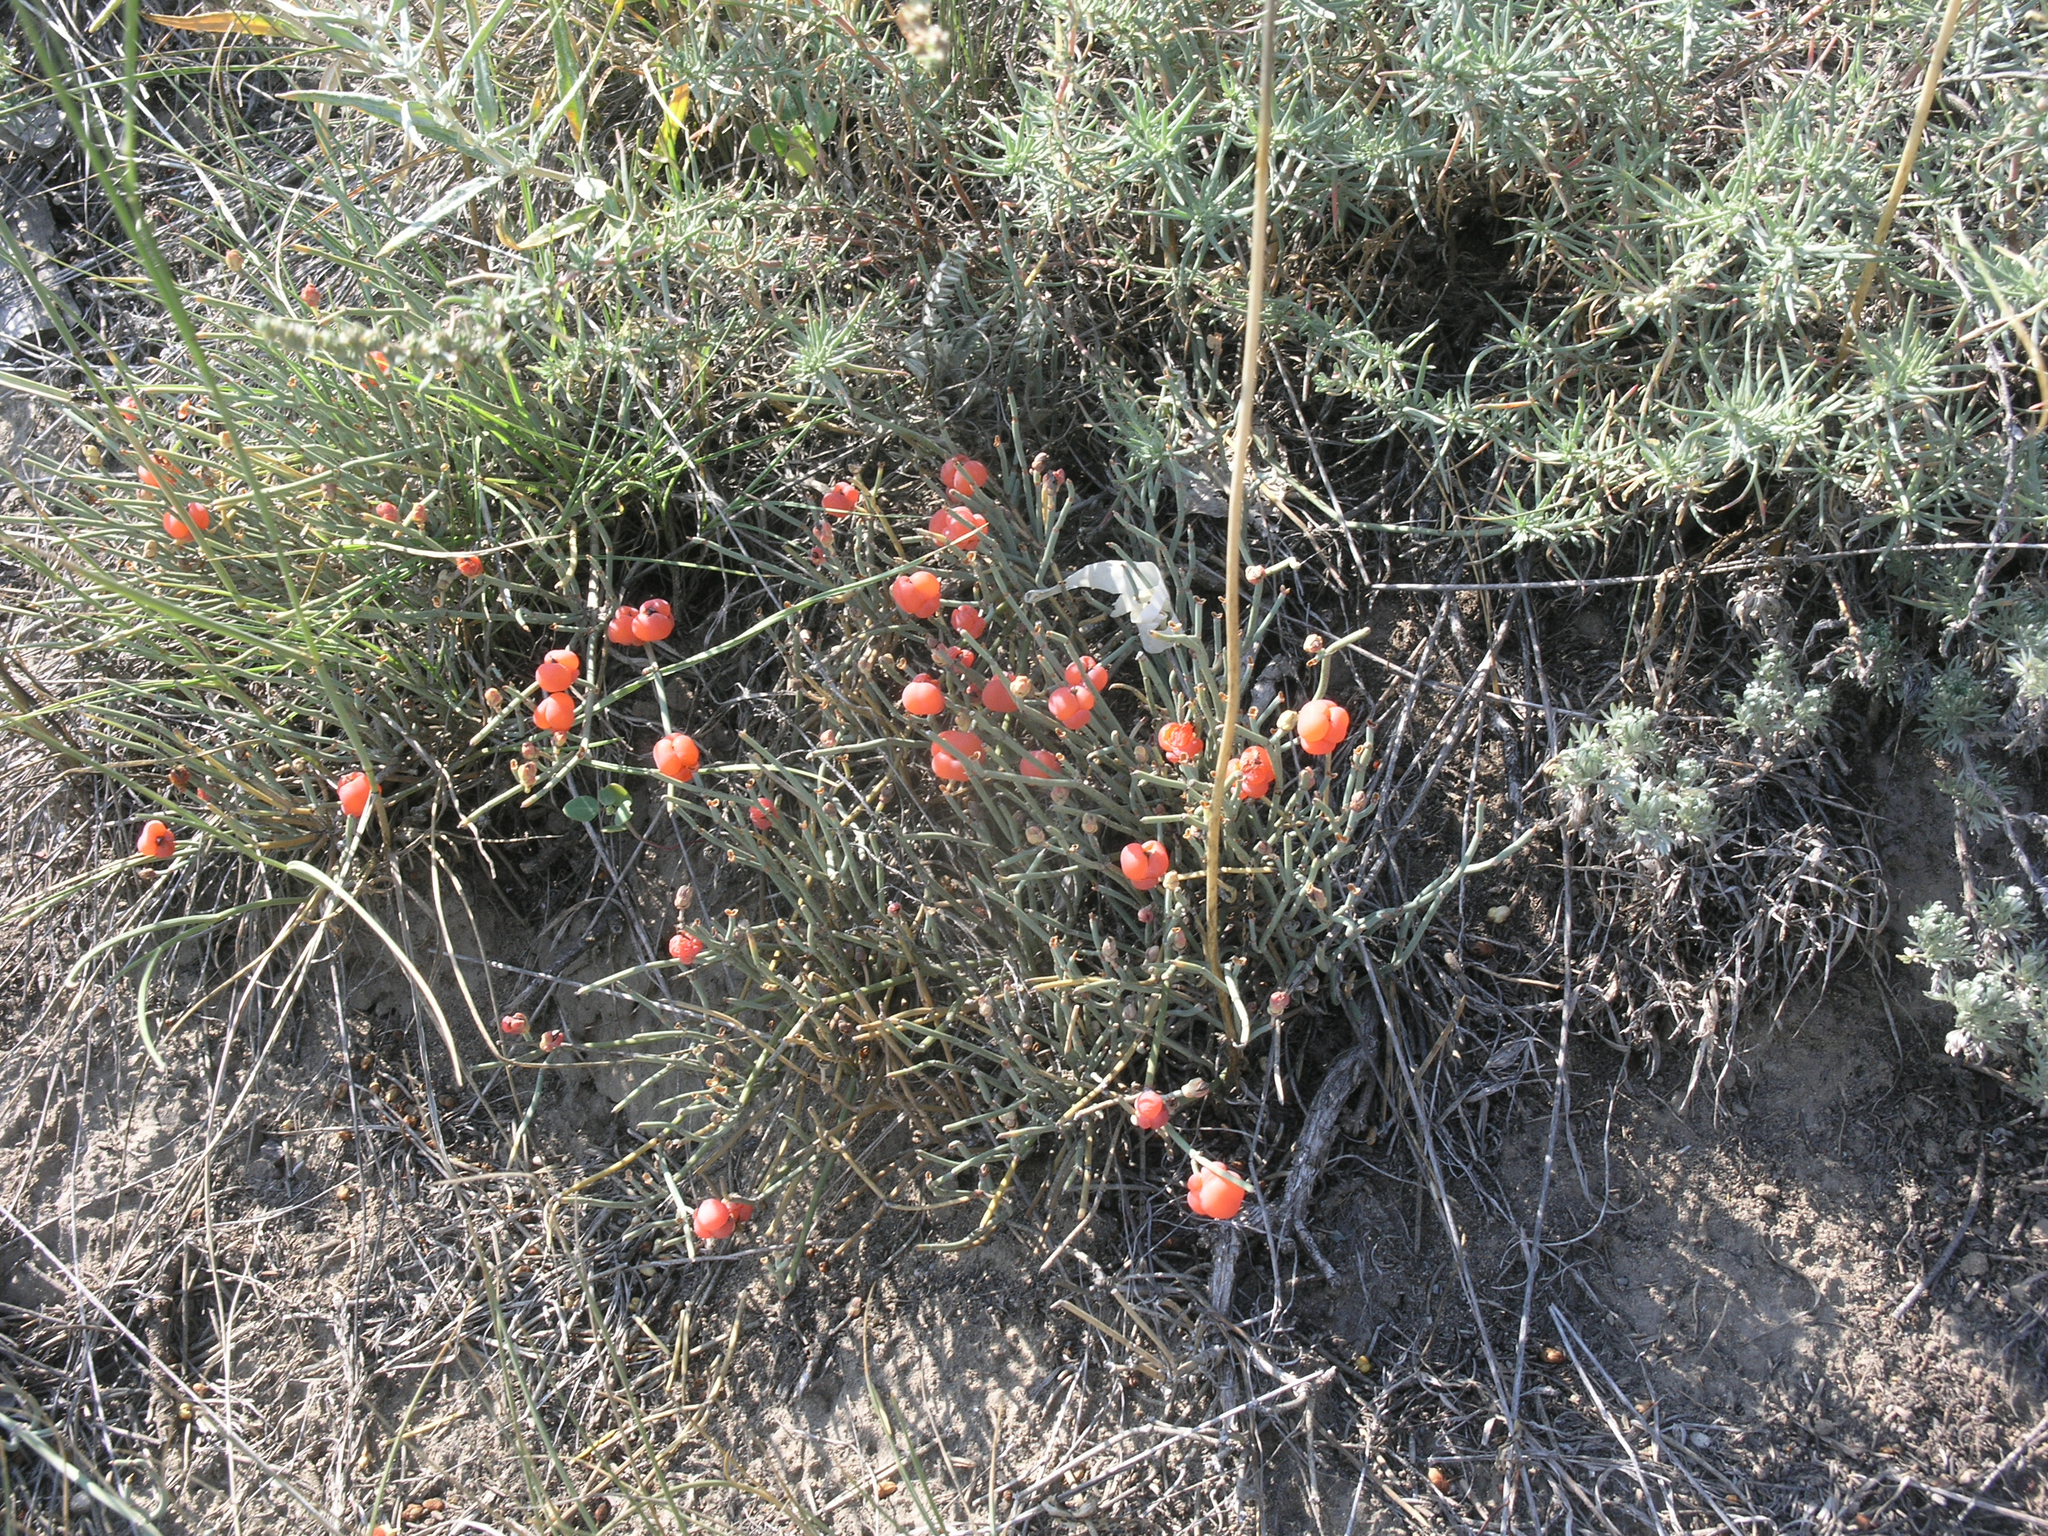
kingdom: Plantae
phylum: Tracheophyta
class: Gnetopsida
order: Ephedrales
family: Ephedraceae
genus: Ephedra
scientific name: Ephedra distachya
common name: Sea grape
